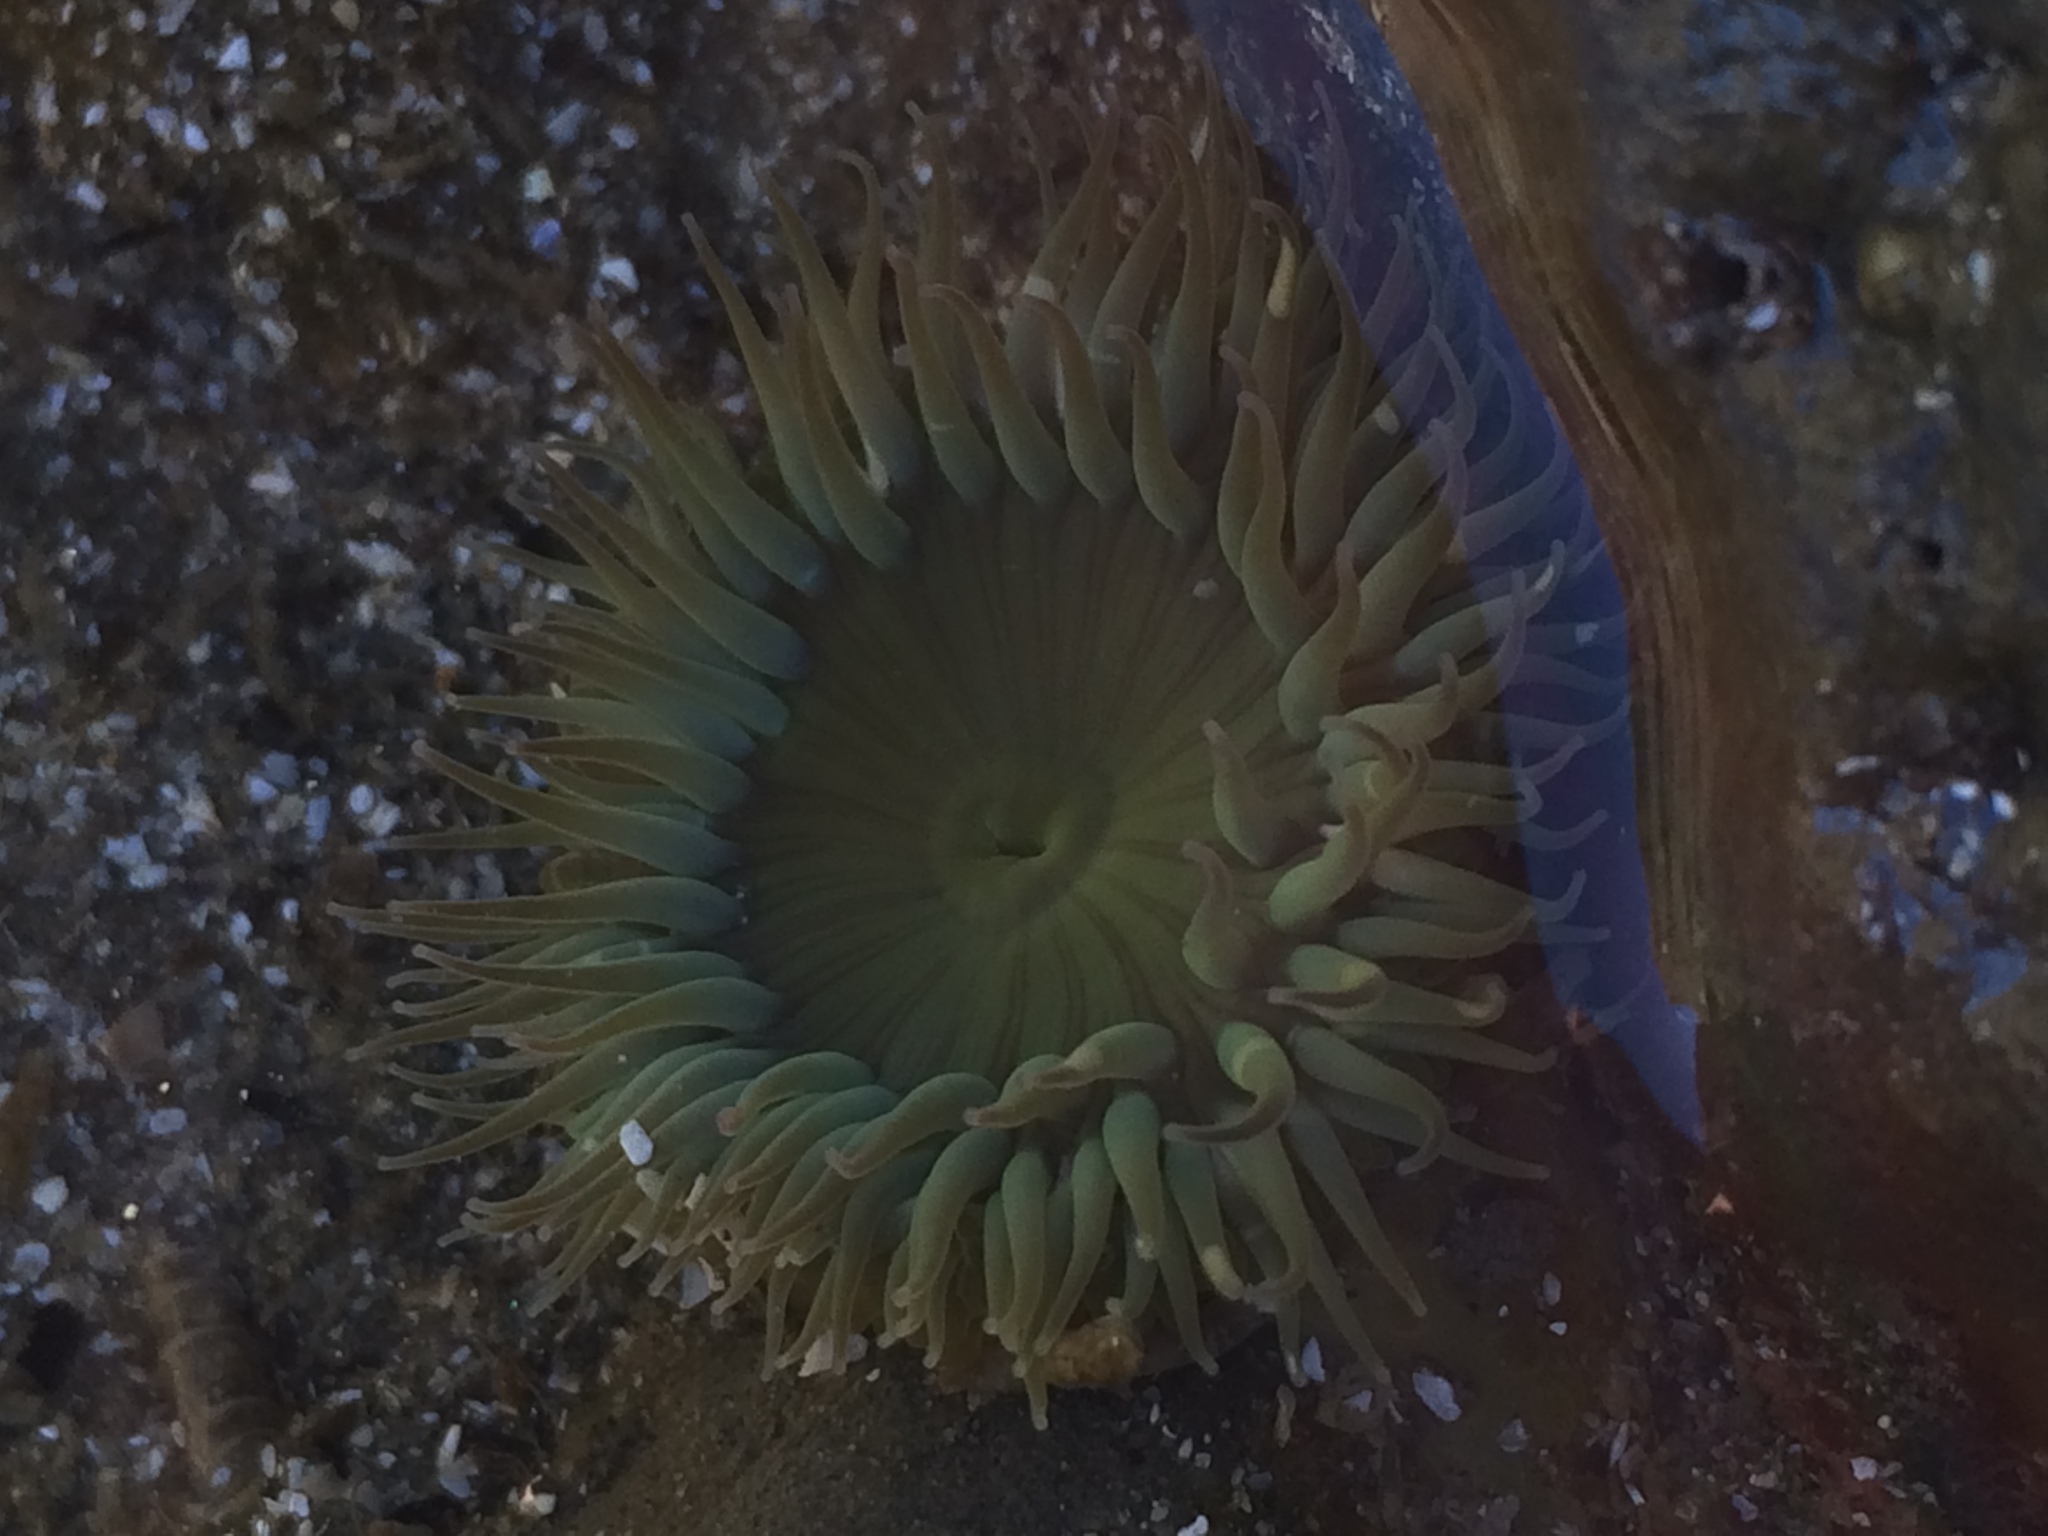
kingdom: Animalia
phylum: Cnidaria
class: Anthozoa
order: Actiniaria
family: Actiniidae
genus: Anthopleura
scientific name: Anthopleura sola
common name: Sun anemone
